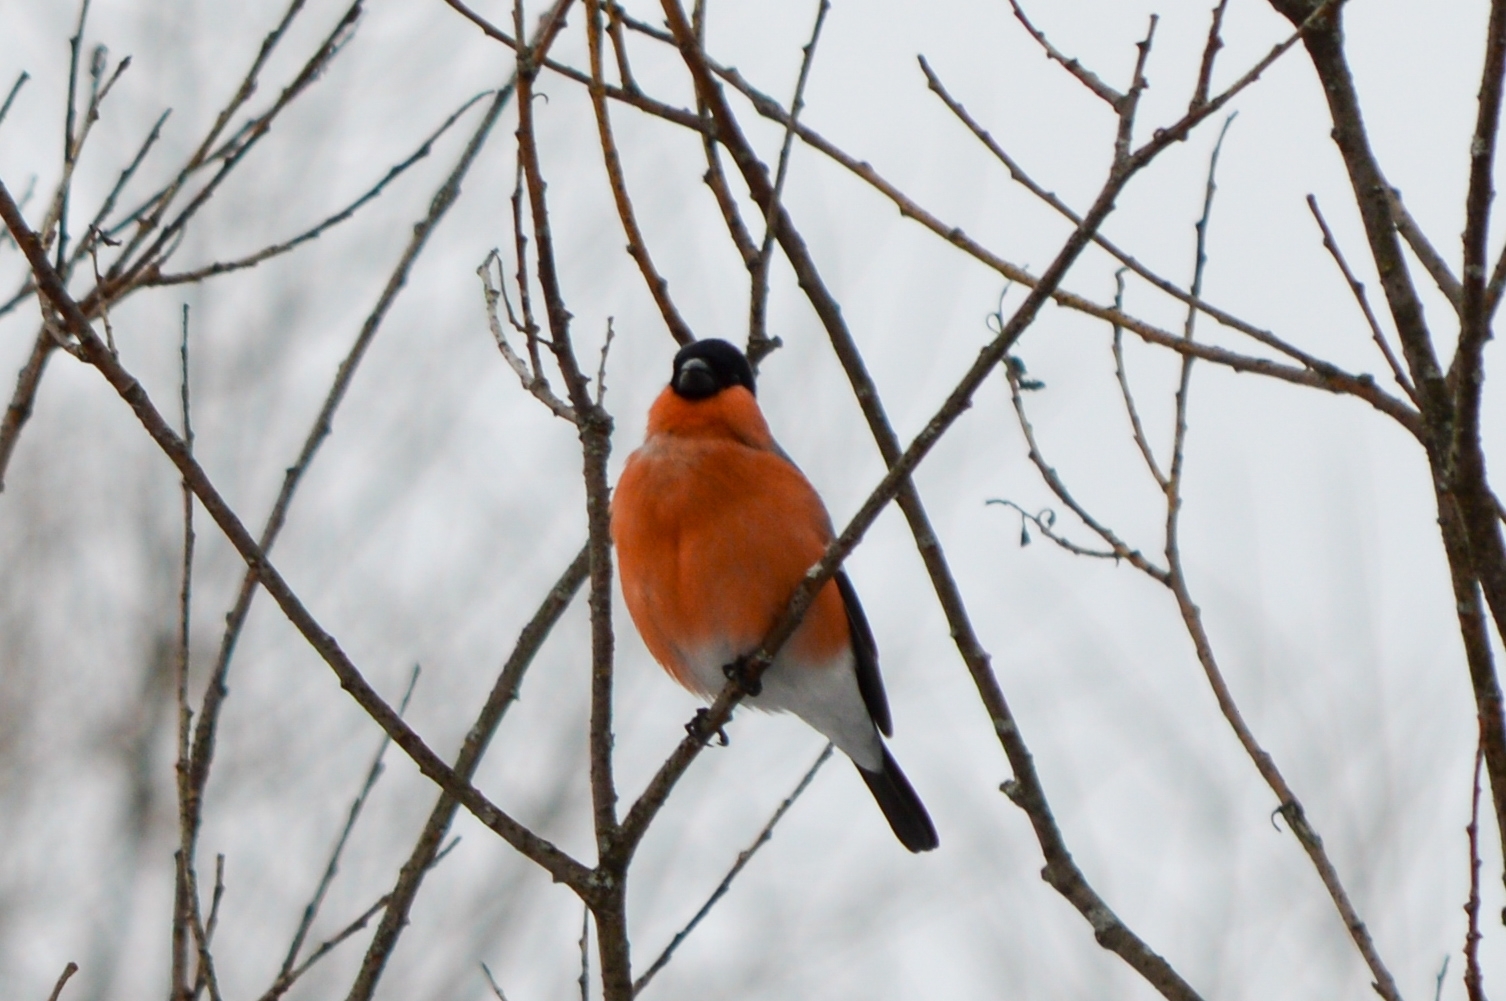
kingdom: Animalia
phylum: Chordata
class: Aves
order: Passeriformes
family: Fringillidae
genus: Pyrrhula
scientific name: Pyrrhula pyrrhula
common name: Eurasian bullfinch
